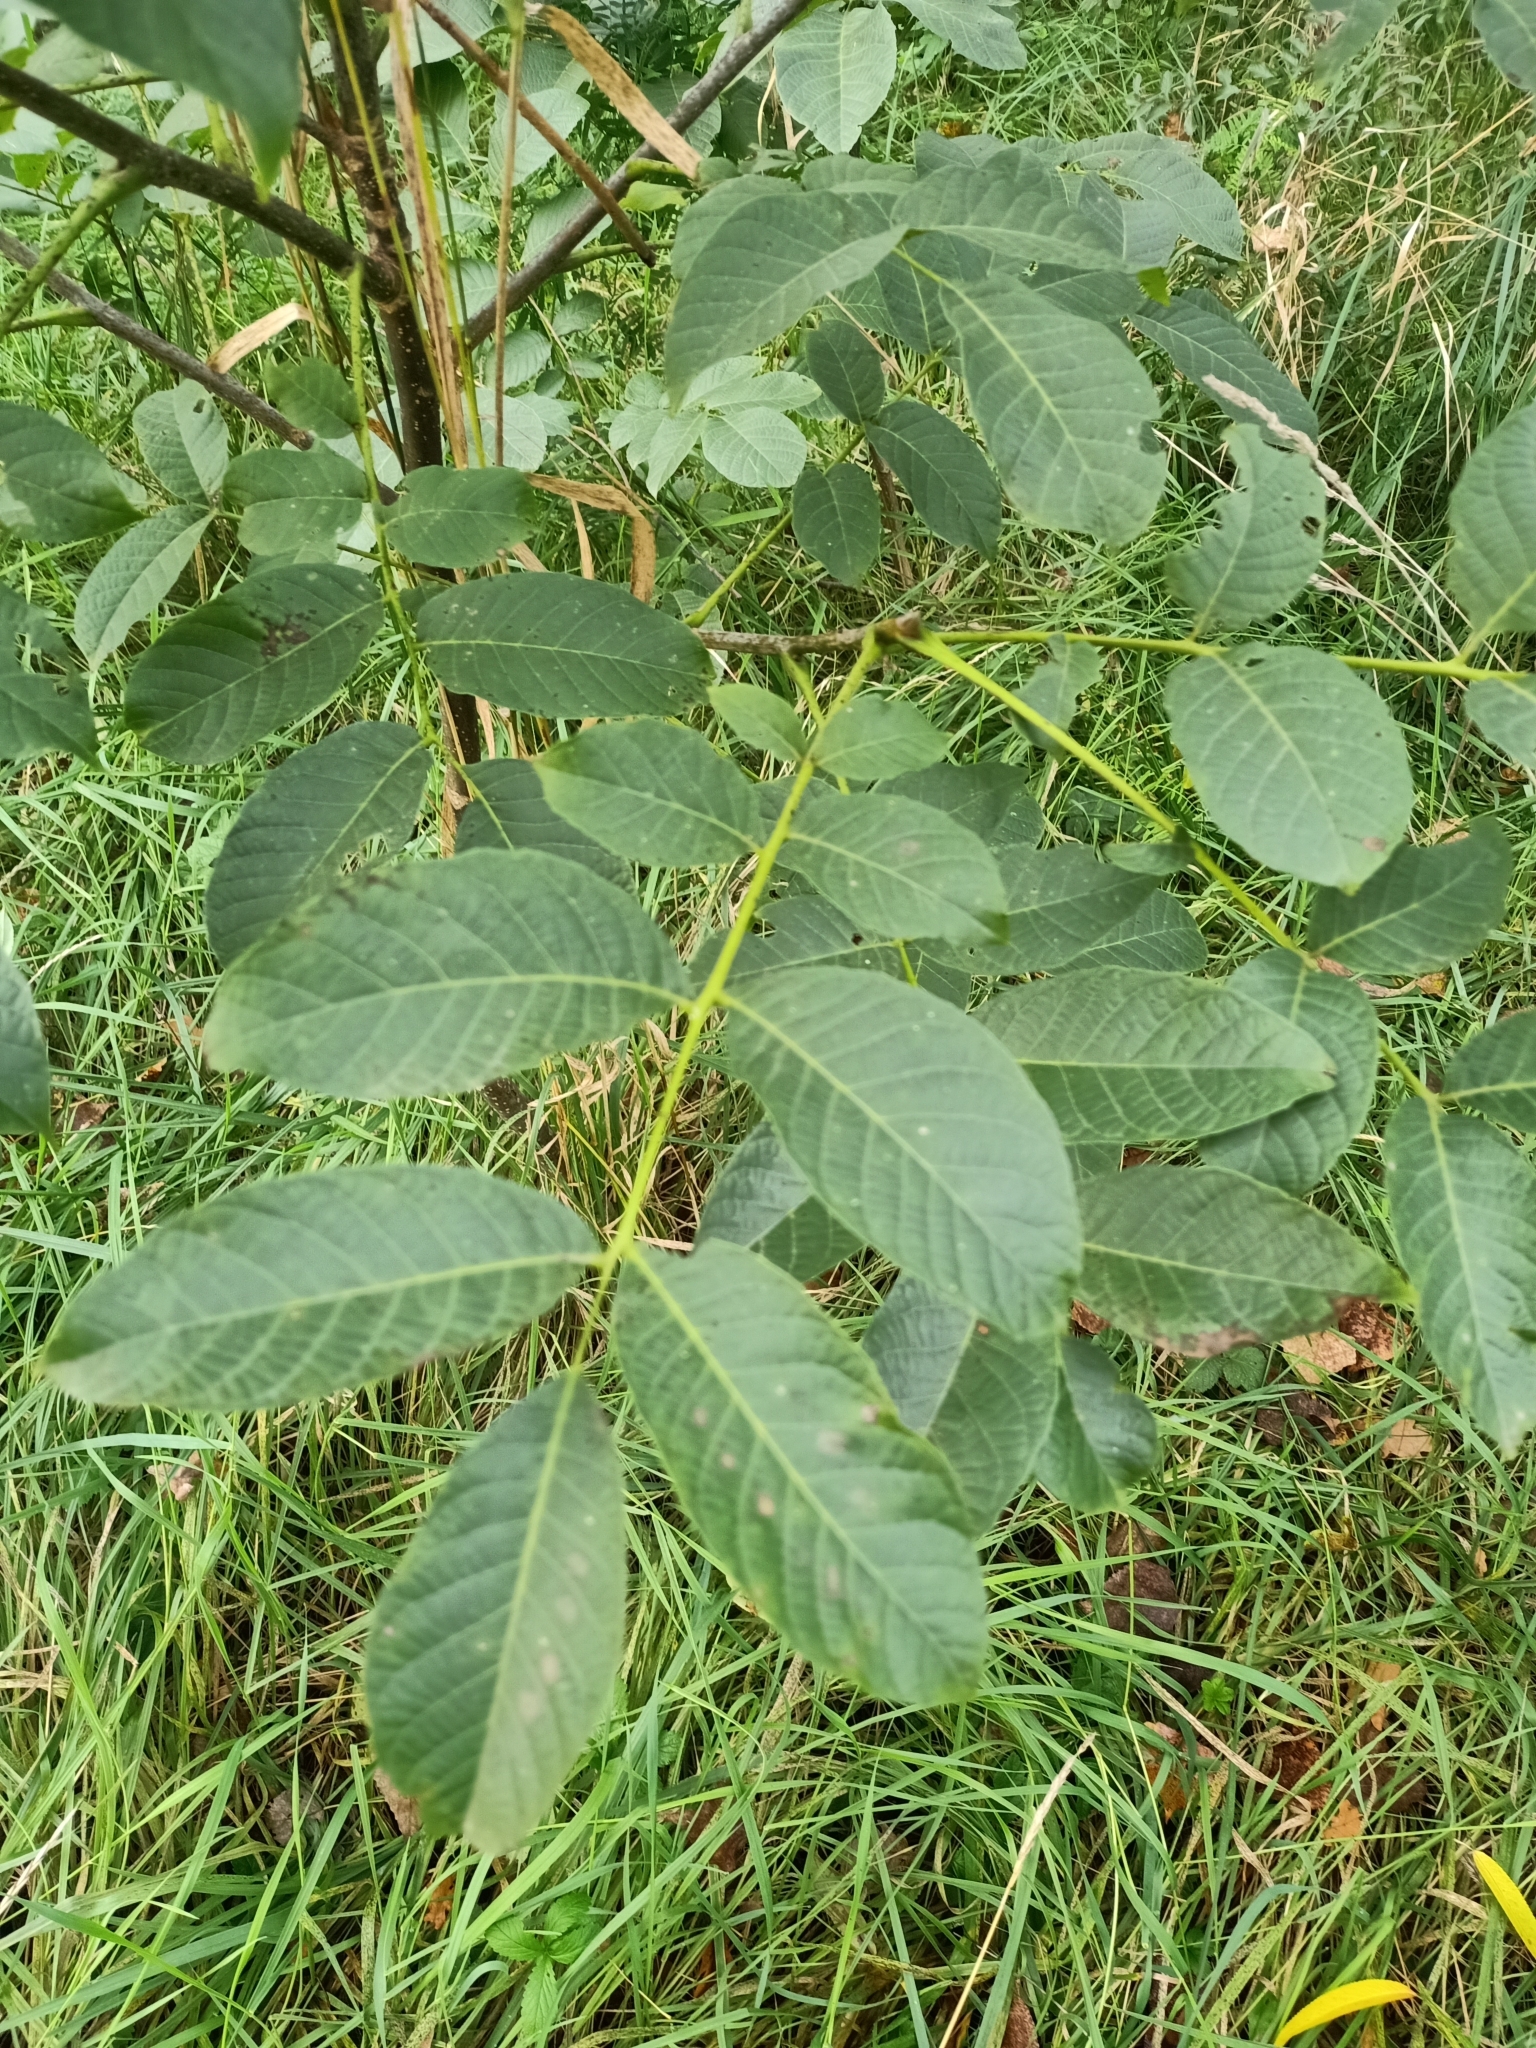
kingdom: Plantae
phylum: Tracheophyta
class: Magnoliopsida
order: Fagales
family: Juglandaceae
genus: Juglans
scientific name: Juglans regia
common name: Walnut
